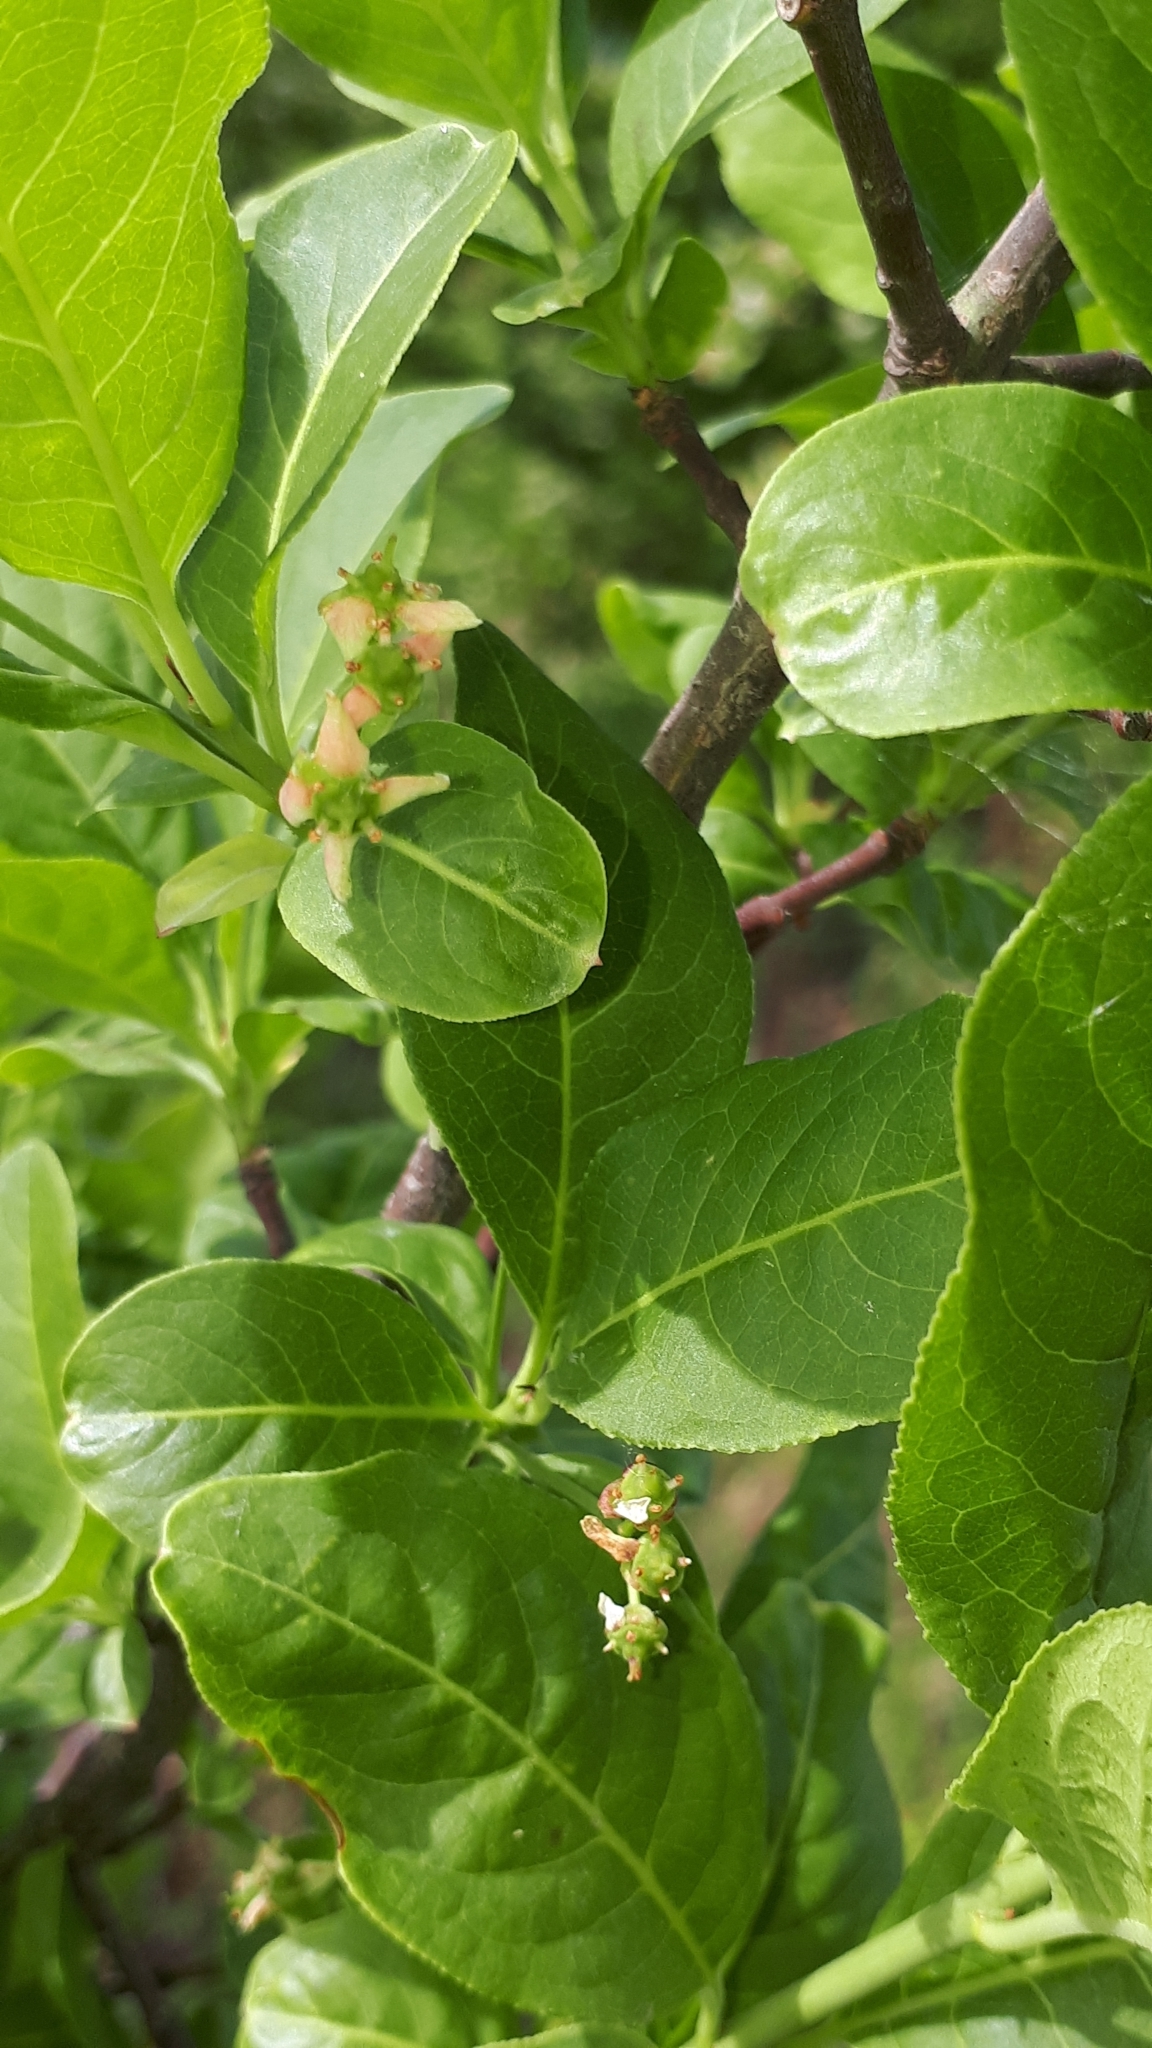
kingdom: Plantae
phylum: Tracheophyta
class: Magnoliopsida
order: Celastrales
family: Celastraceae
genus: Euonymus
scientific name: Euonymus europaeus
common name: Spindle
